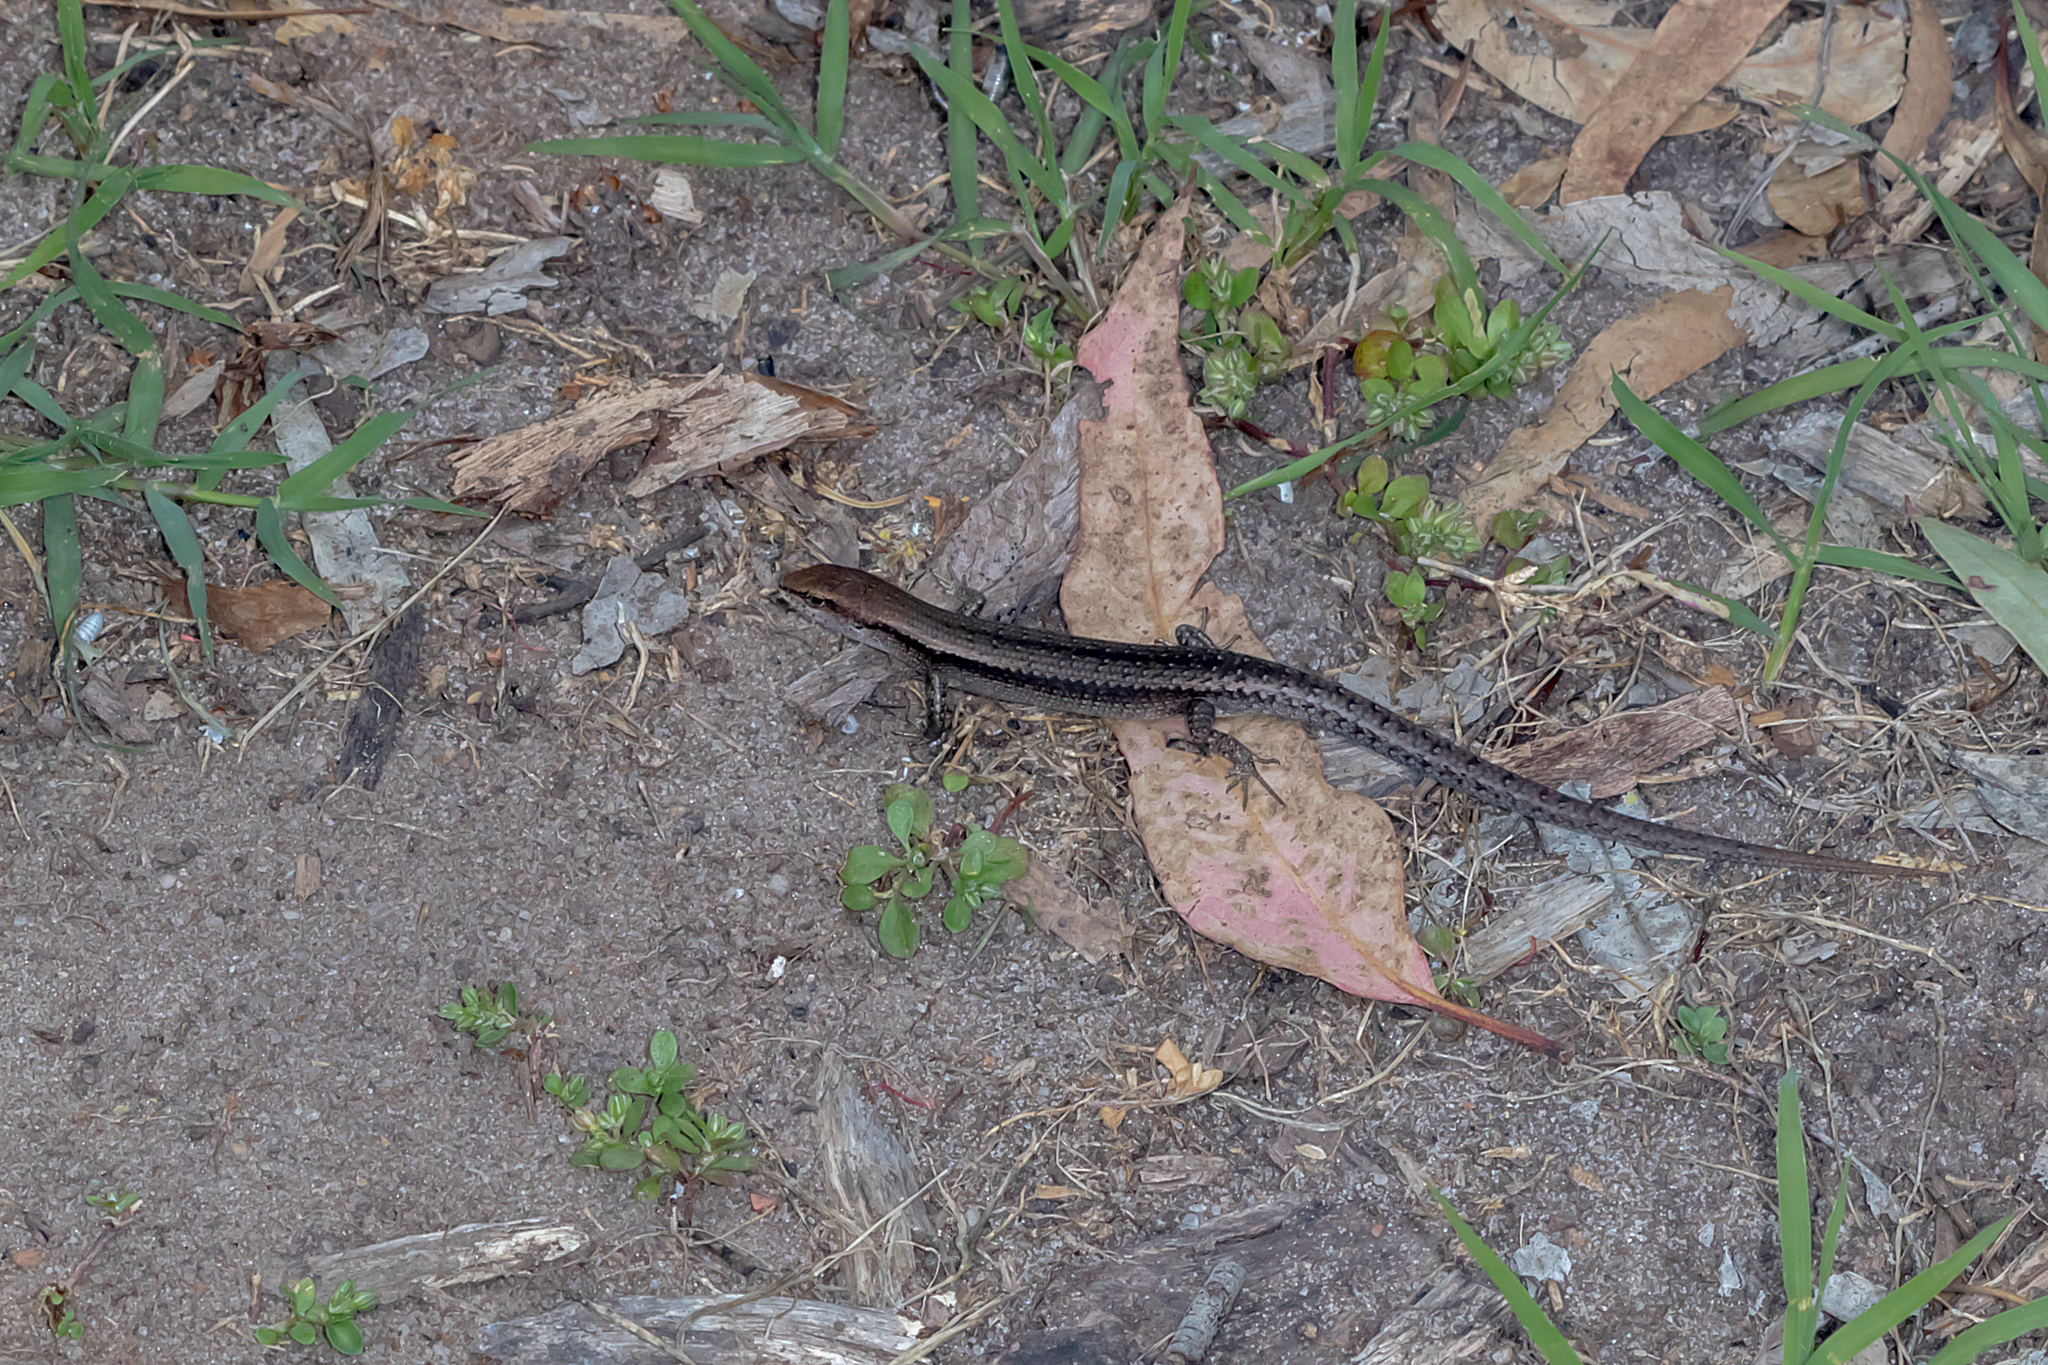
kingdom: Animalia
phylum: Chordata
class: Squamata
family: Scincidae
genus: Lampropholis
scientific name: Lampropholis guichenoti
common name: Garden skink
